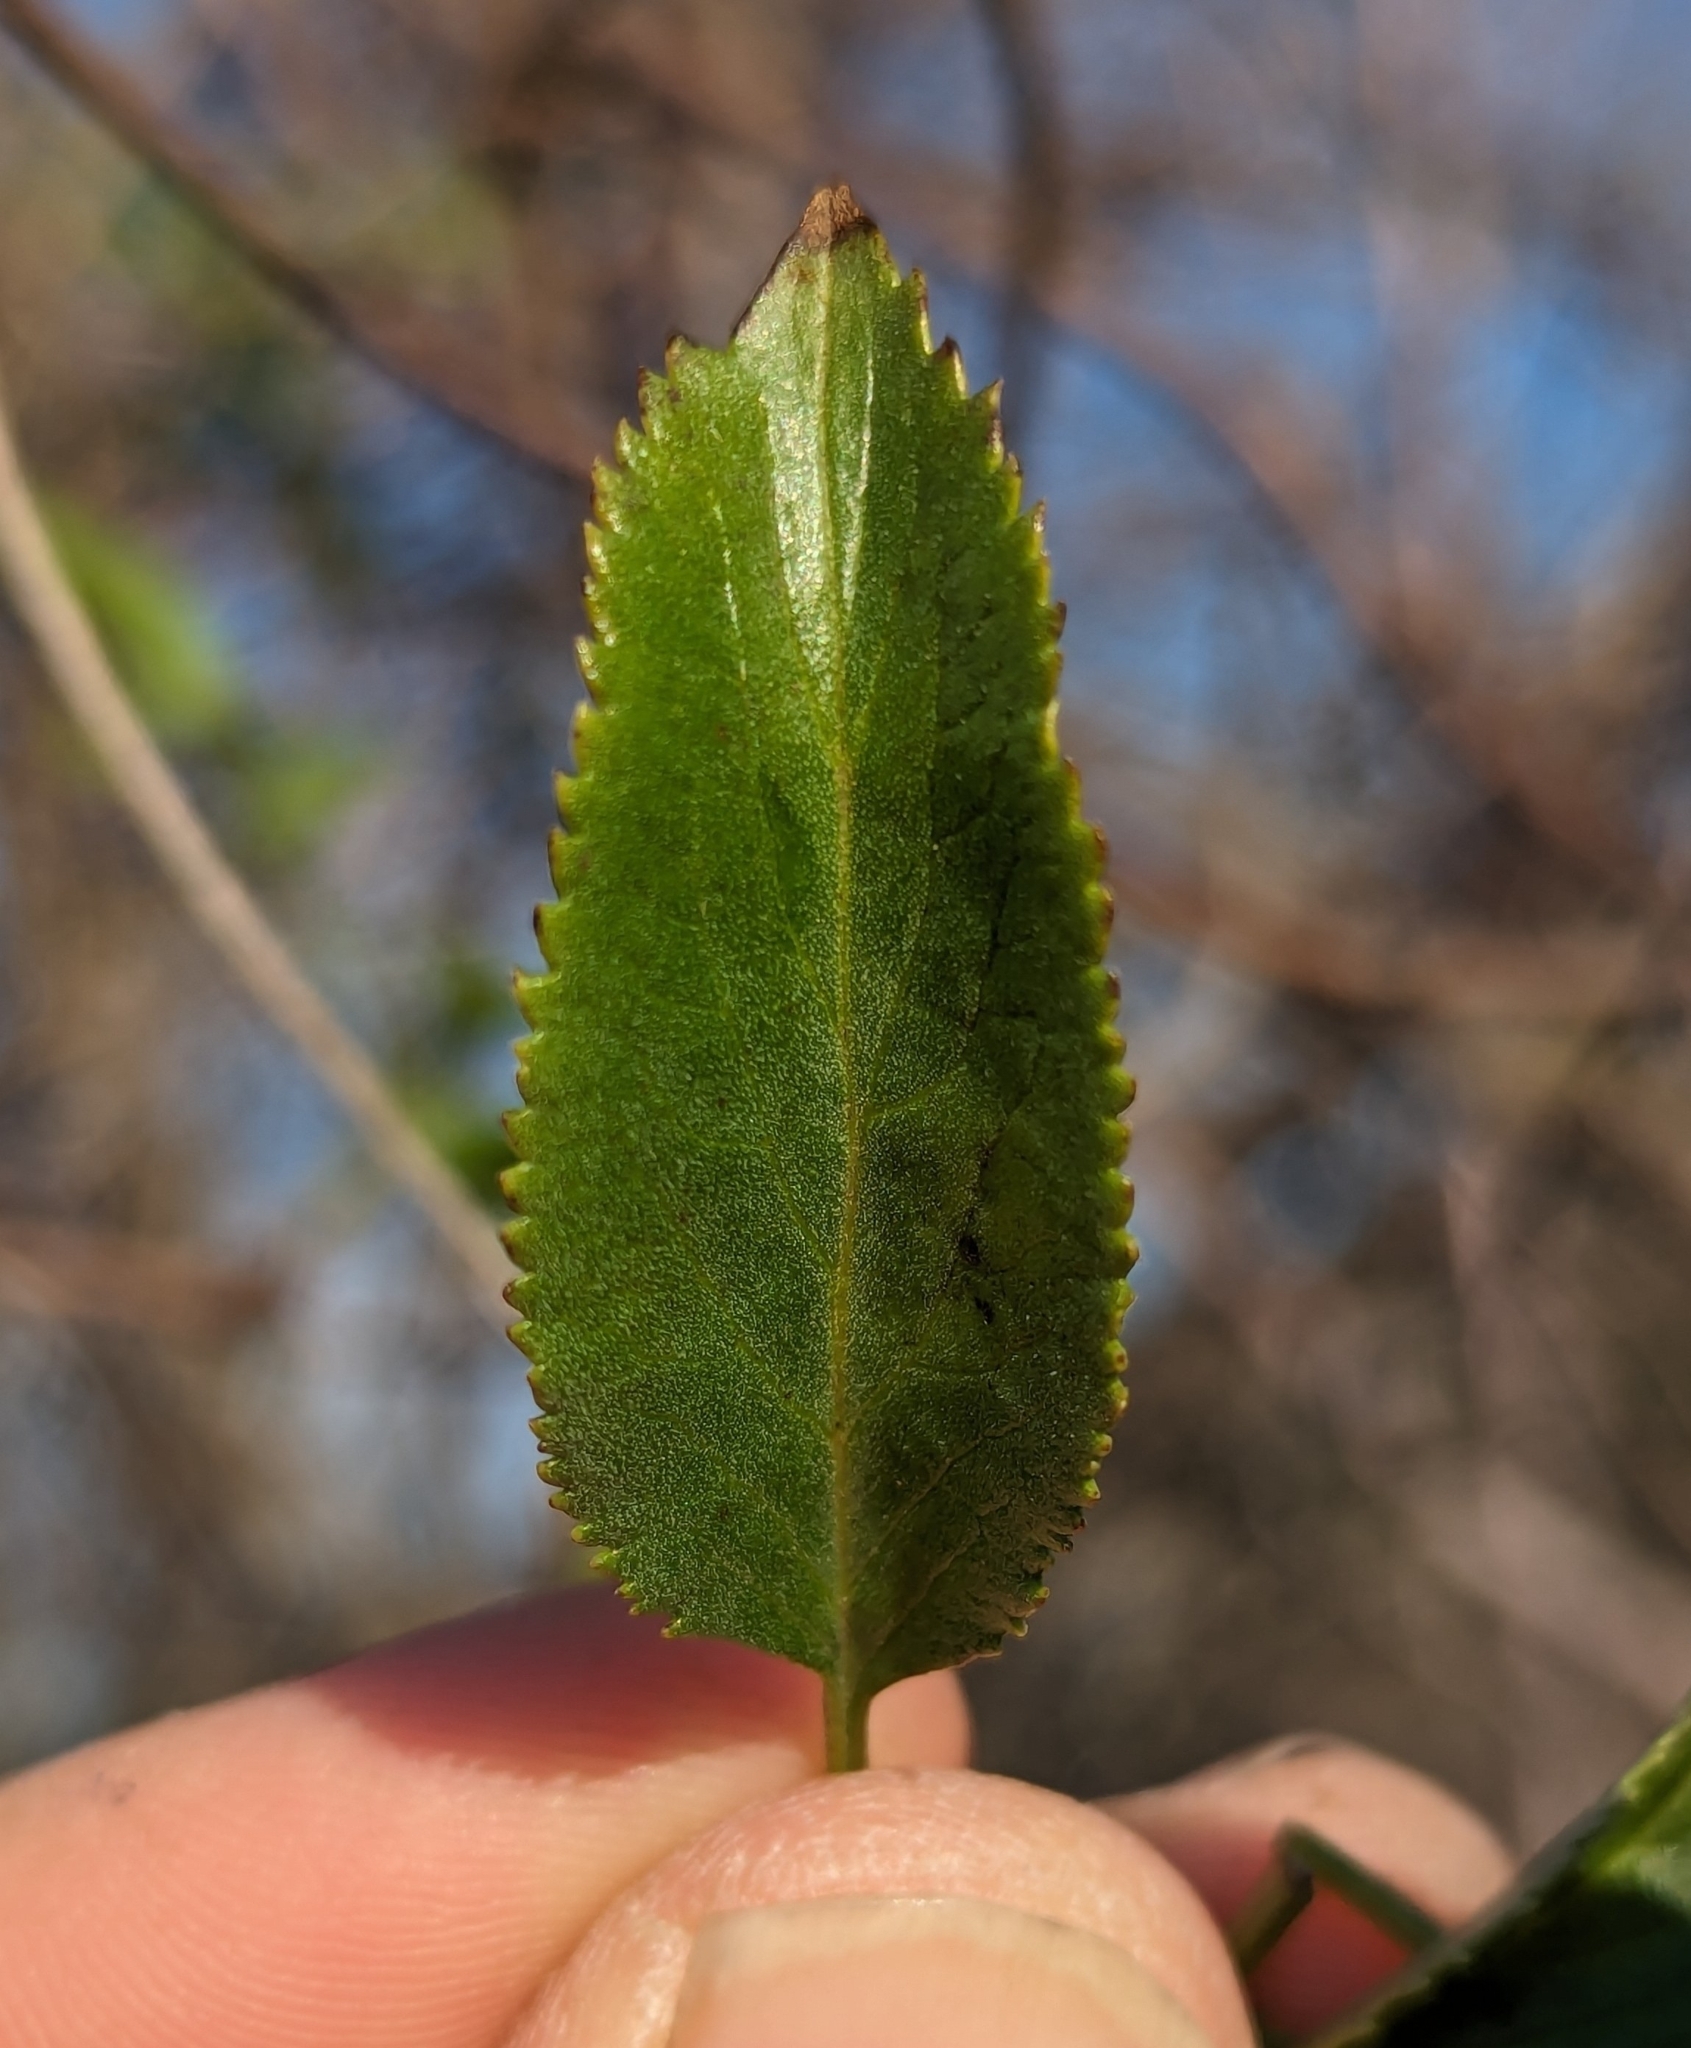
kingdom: Plantae
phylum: Tracheophyta
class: Magnoliopsida
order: Dipsacales
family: Viburnaceae
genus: Sambucus
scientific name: Sambucus cerulea
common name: Blue elder
